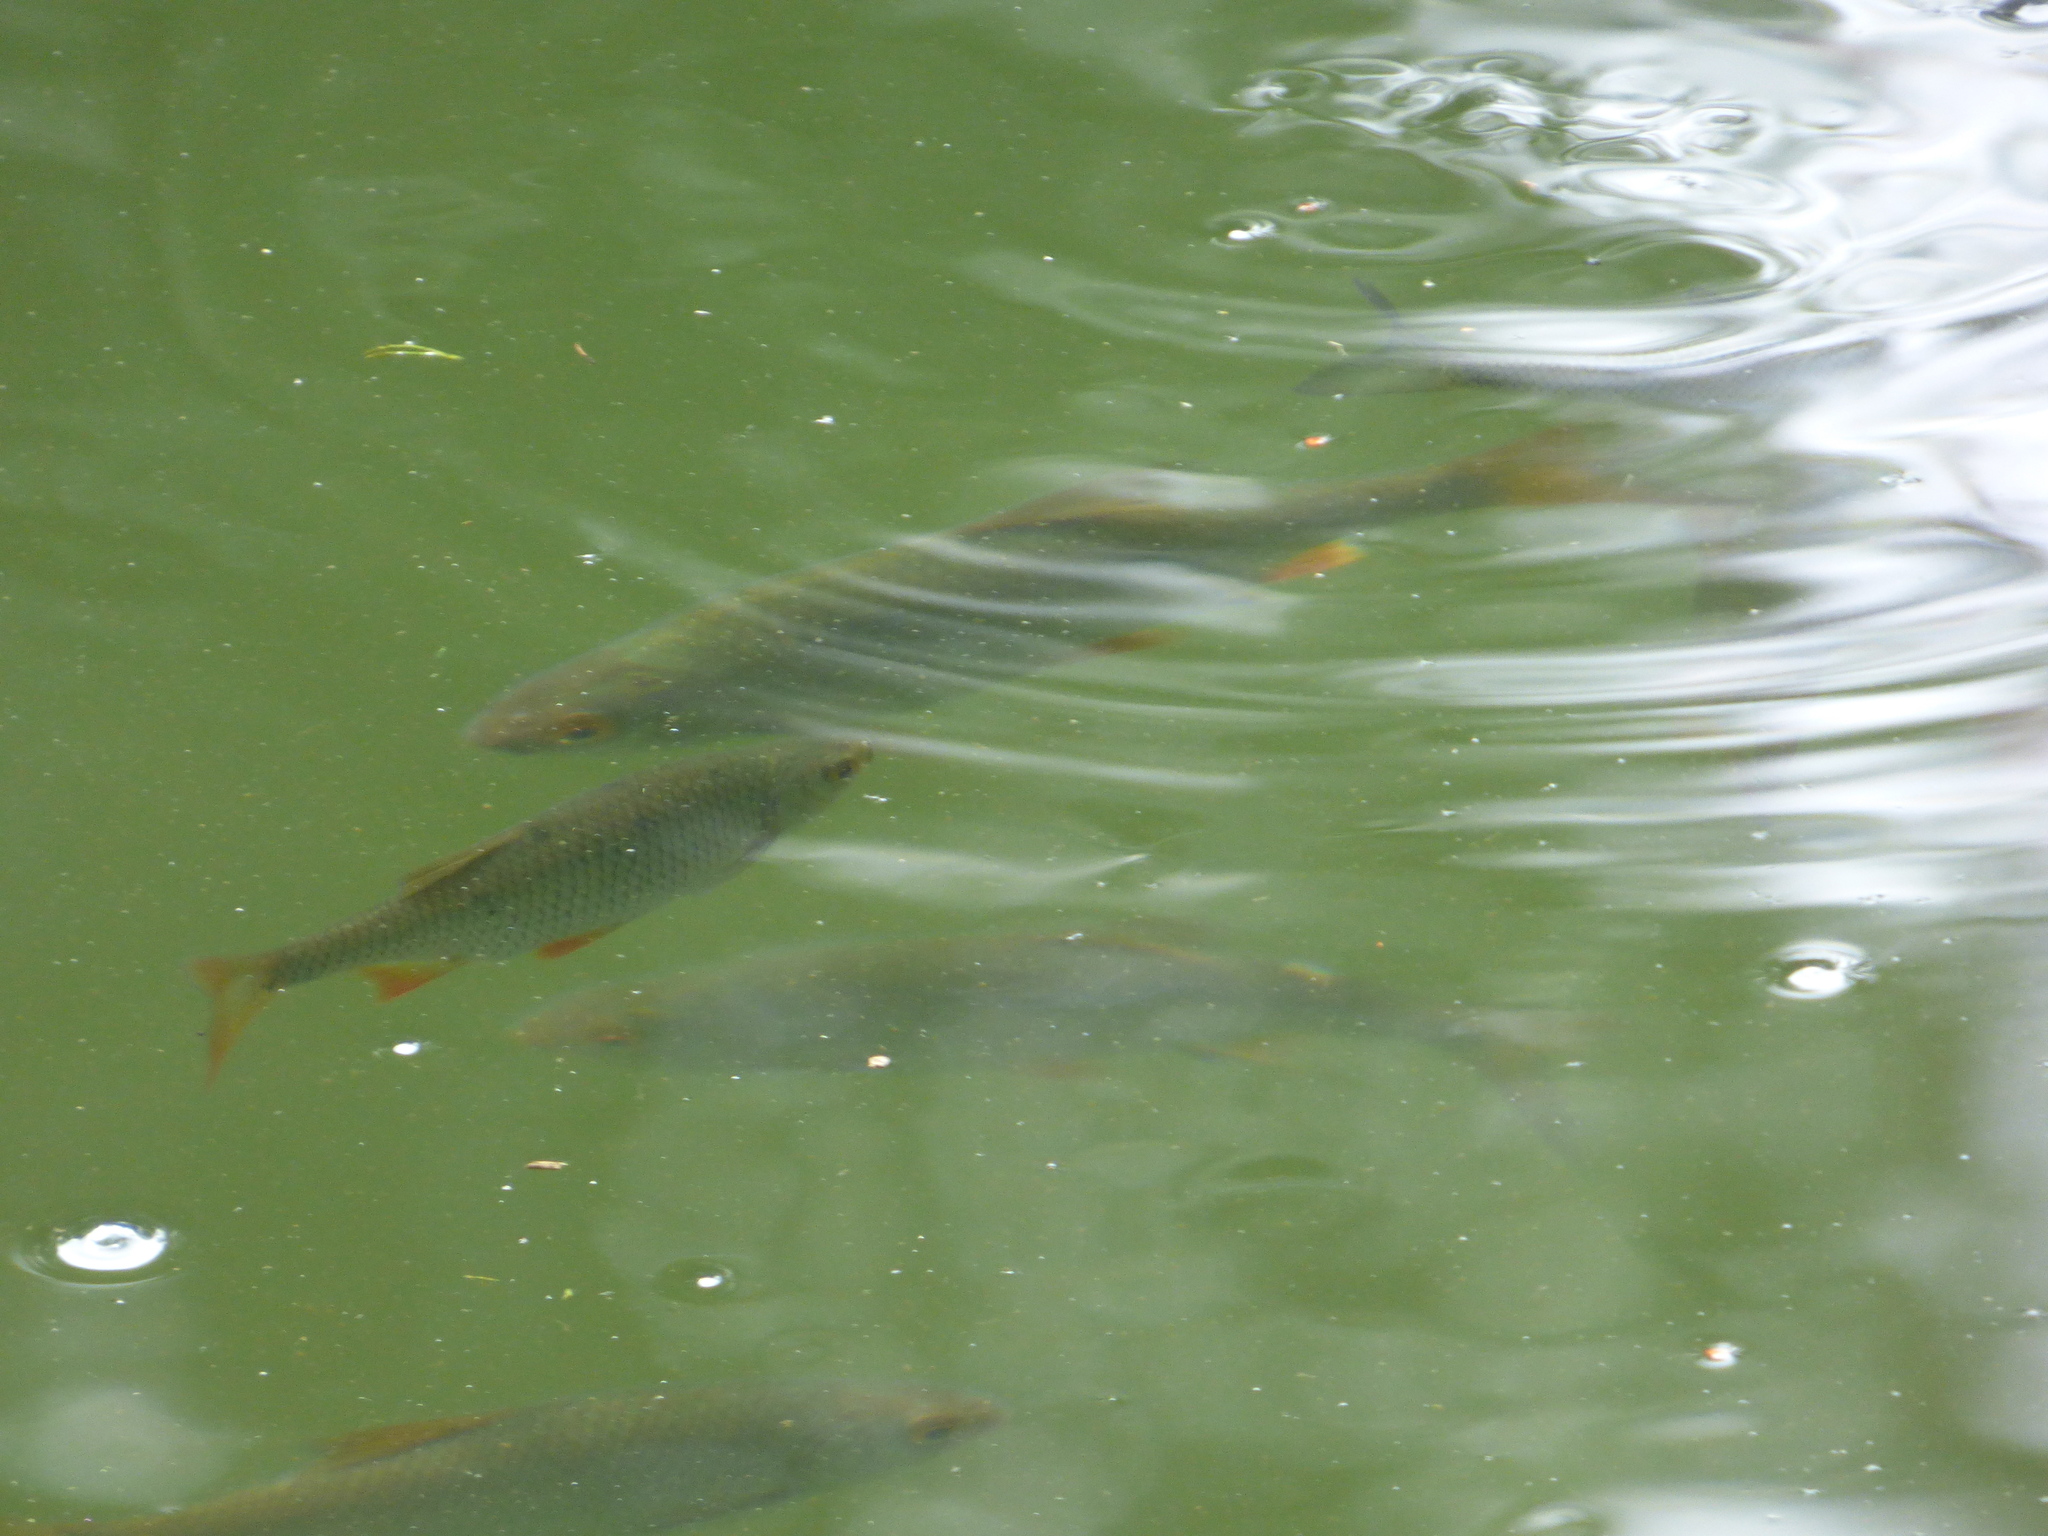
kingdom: Animalia
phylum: Chordata
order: Cypriniformes
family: Cyprinidae
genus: Rutilus
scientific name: Rutilus rutilus
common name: Roach
